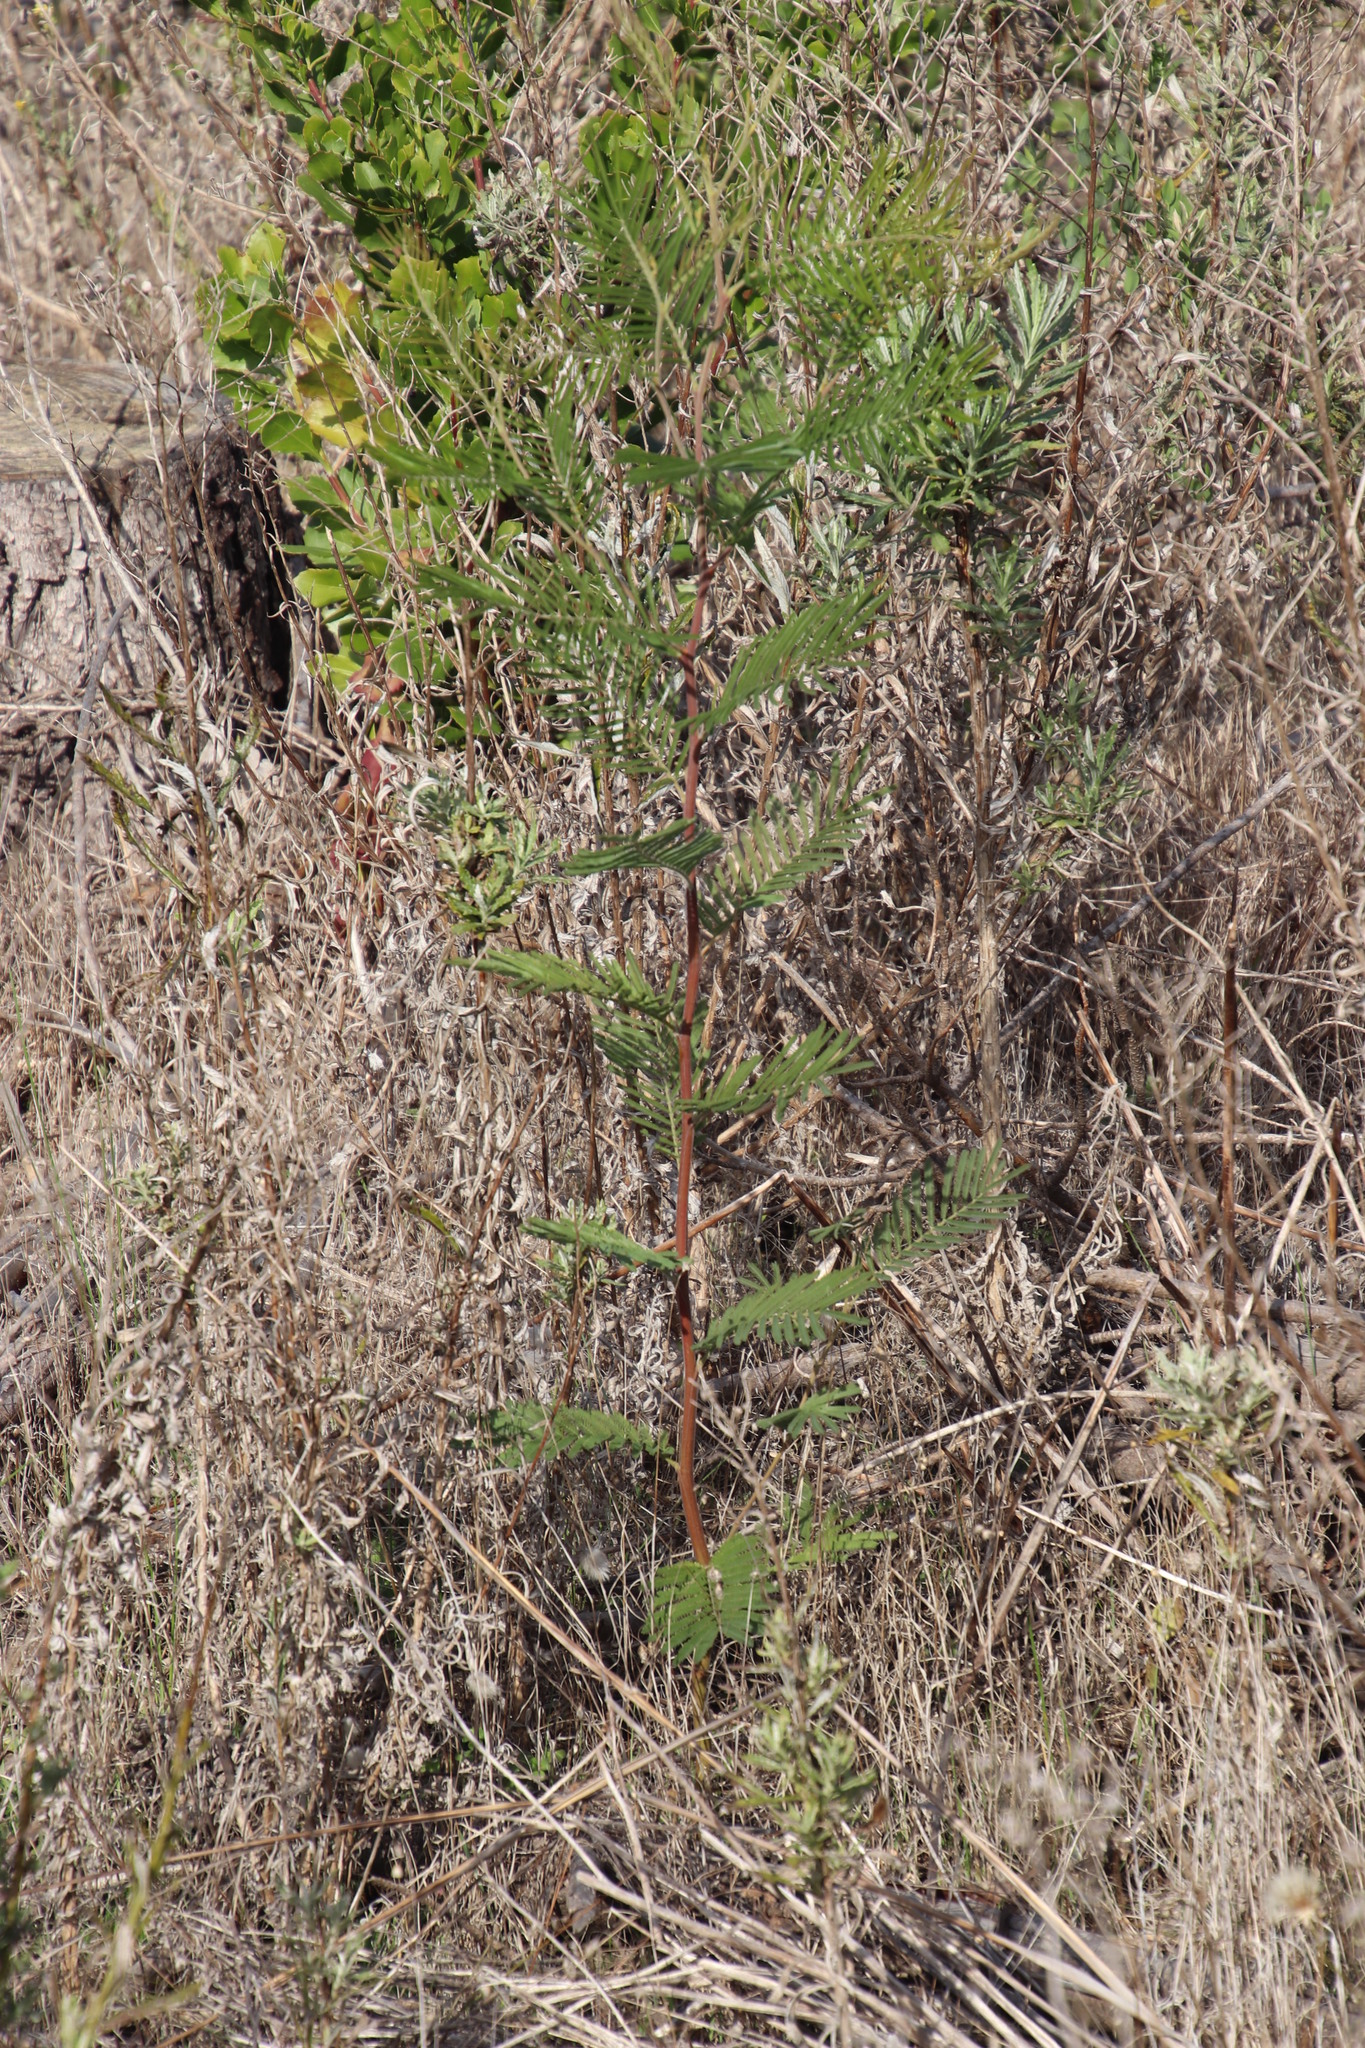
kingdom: Plantae
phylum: Tracheophyta
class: Magnoliopsida
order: Fabales
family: Fabaceae
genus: Acacia
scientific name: Acacia mearnsii
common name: Black wattle
